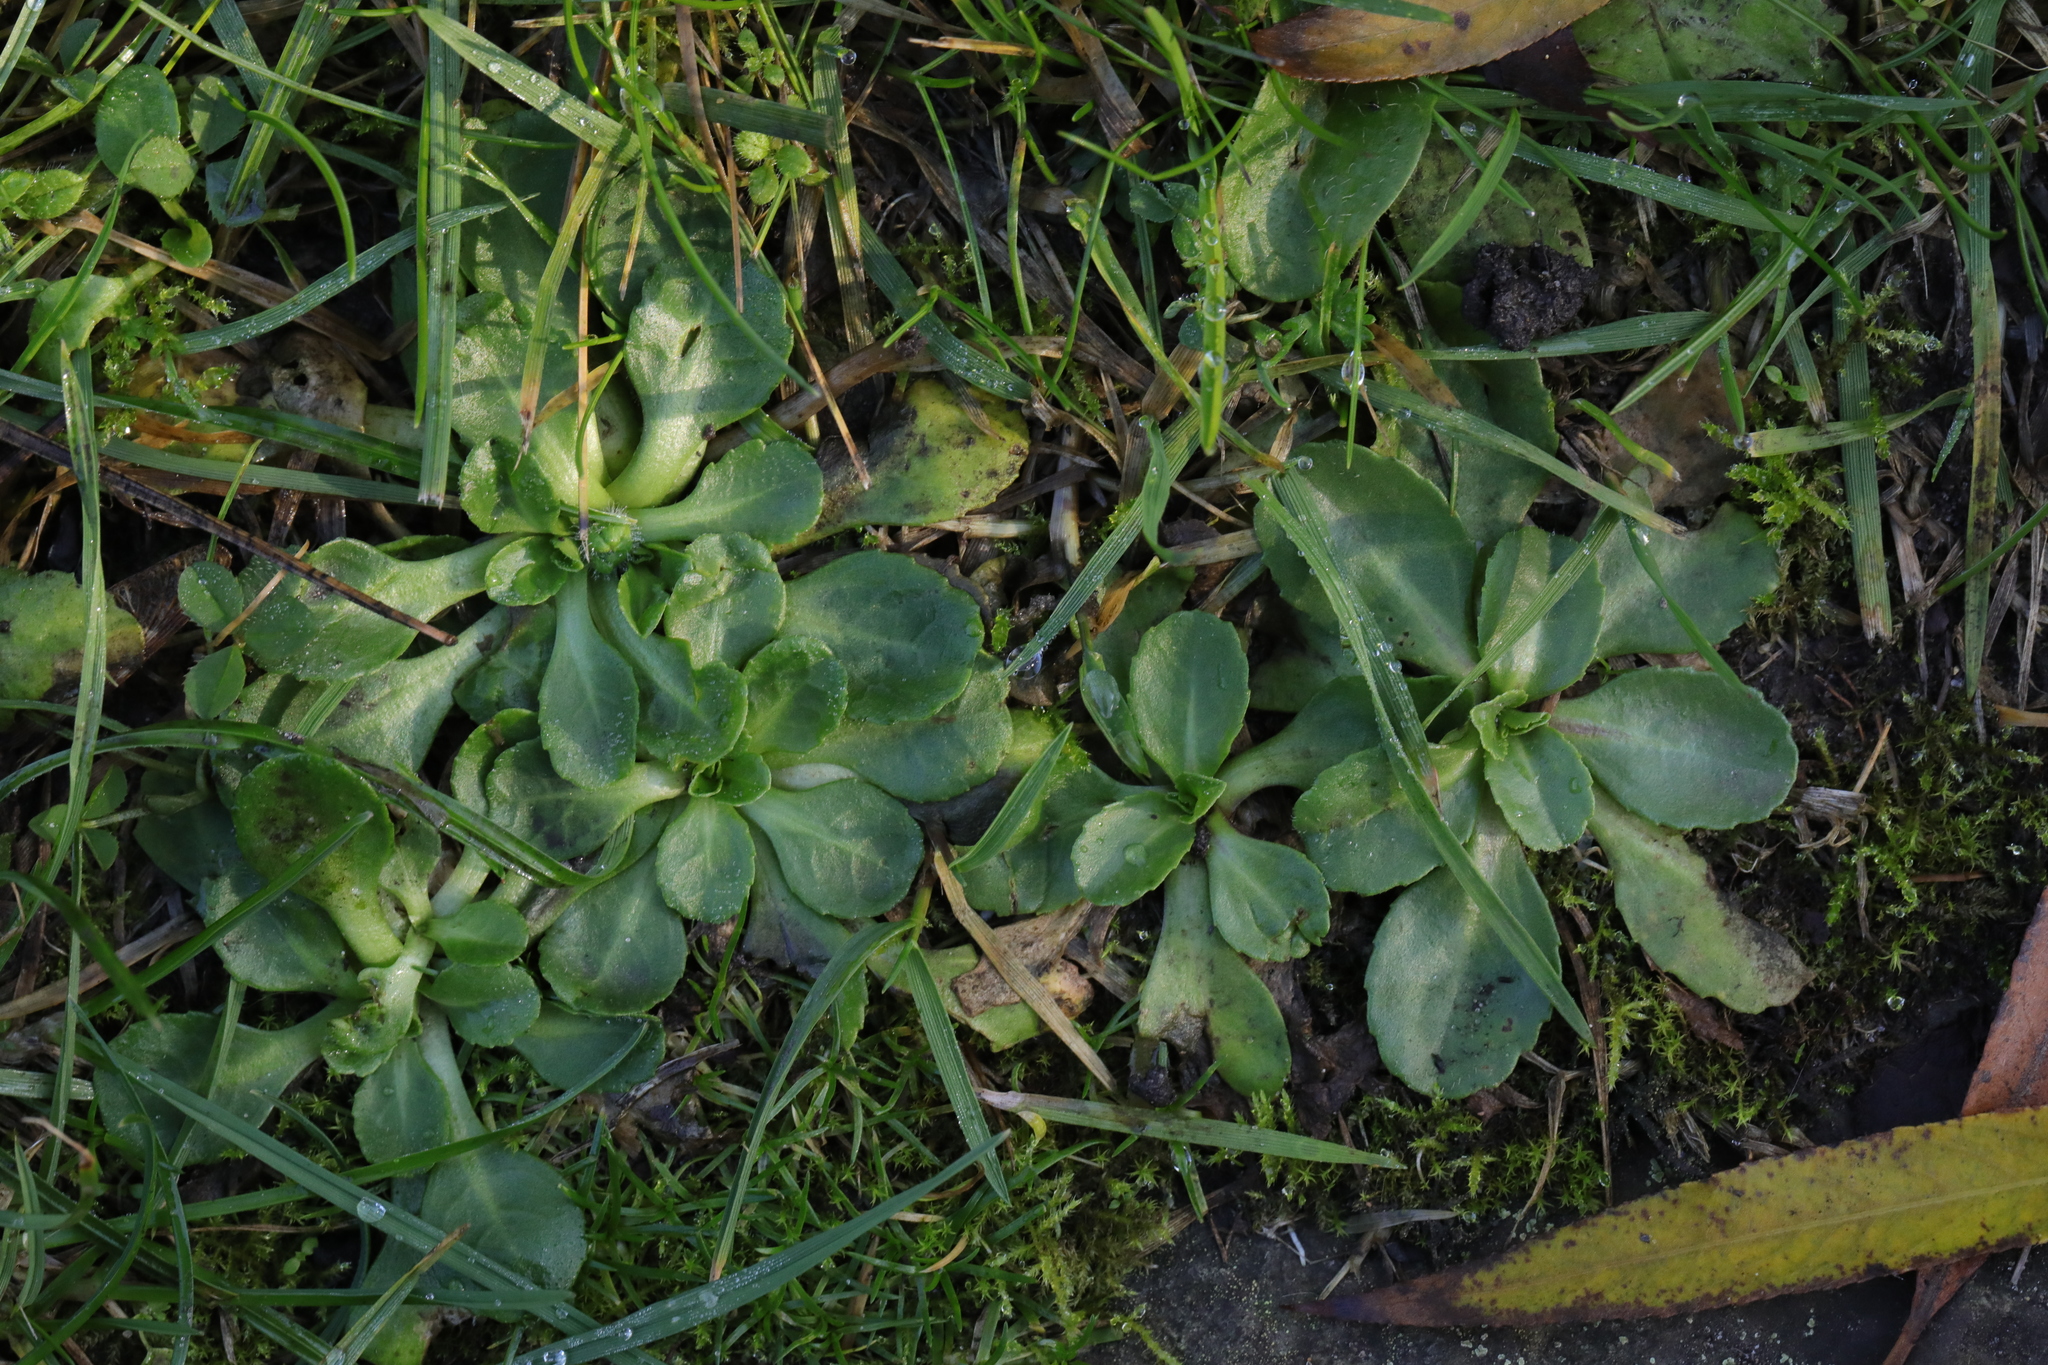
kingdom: Plantae
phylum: Tracheophyta
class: Magnoliopsida
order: Asterales
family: Asteraceae
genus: Bellis
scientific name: Bellis perennis
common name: Lawndaisy
